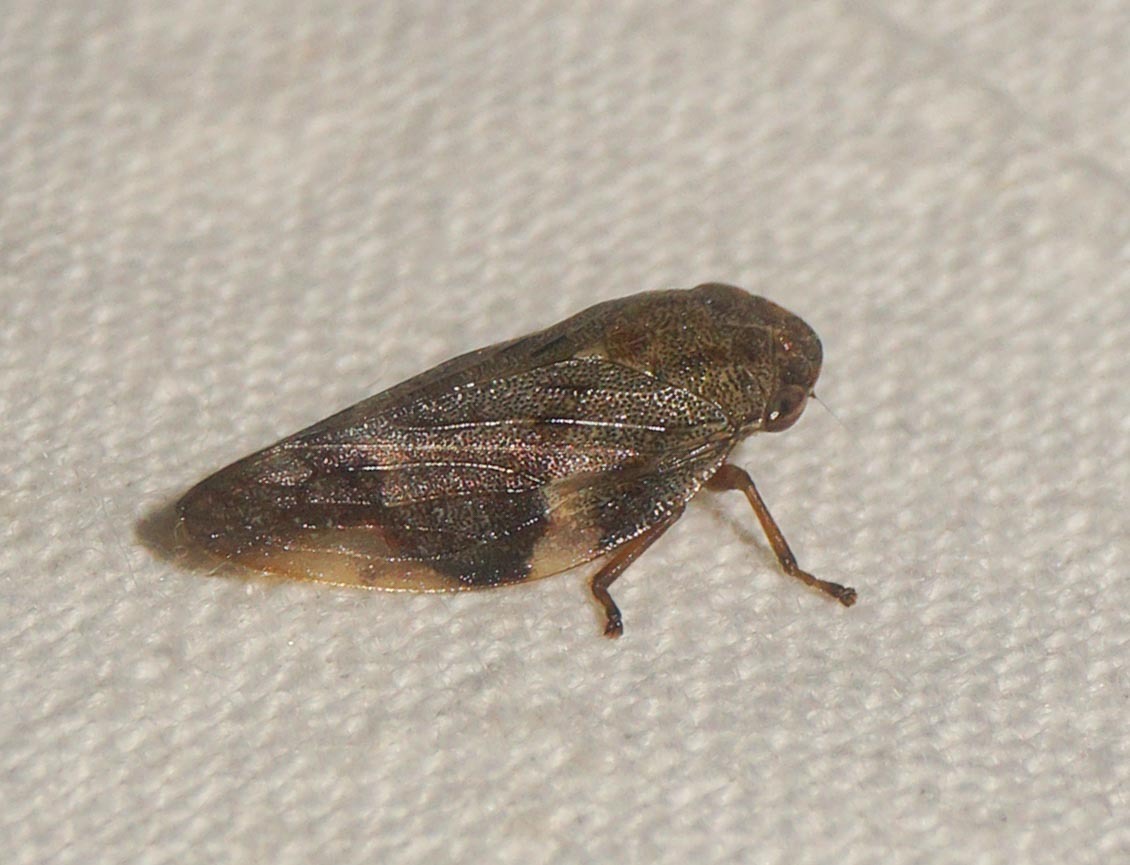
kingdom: Animalia
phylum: Arthropoda
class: Insecta
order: Hemiptera
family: Aphrophoridae
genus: Aphrophora
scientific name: Aphrophora alni
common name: European alder spittlebug
